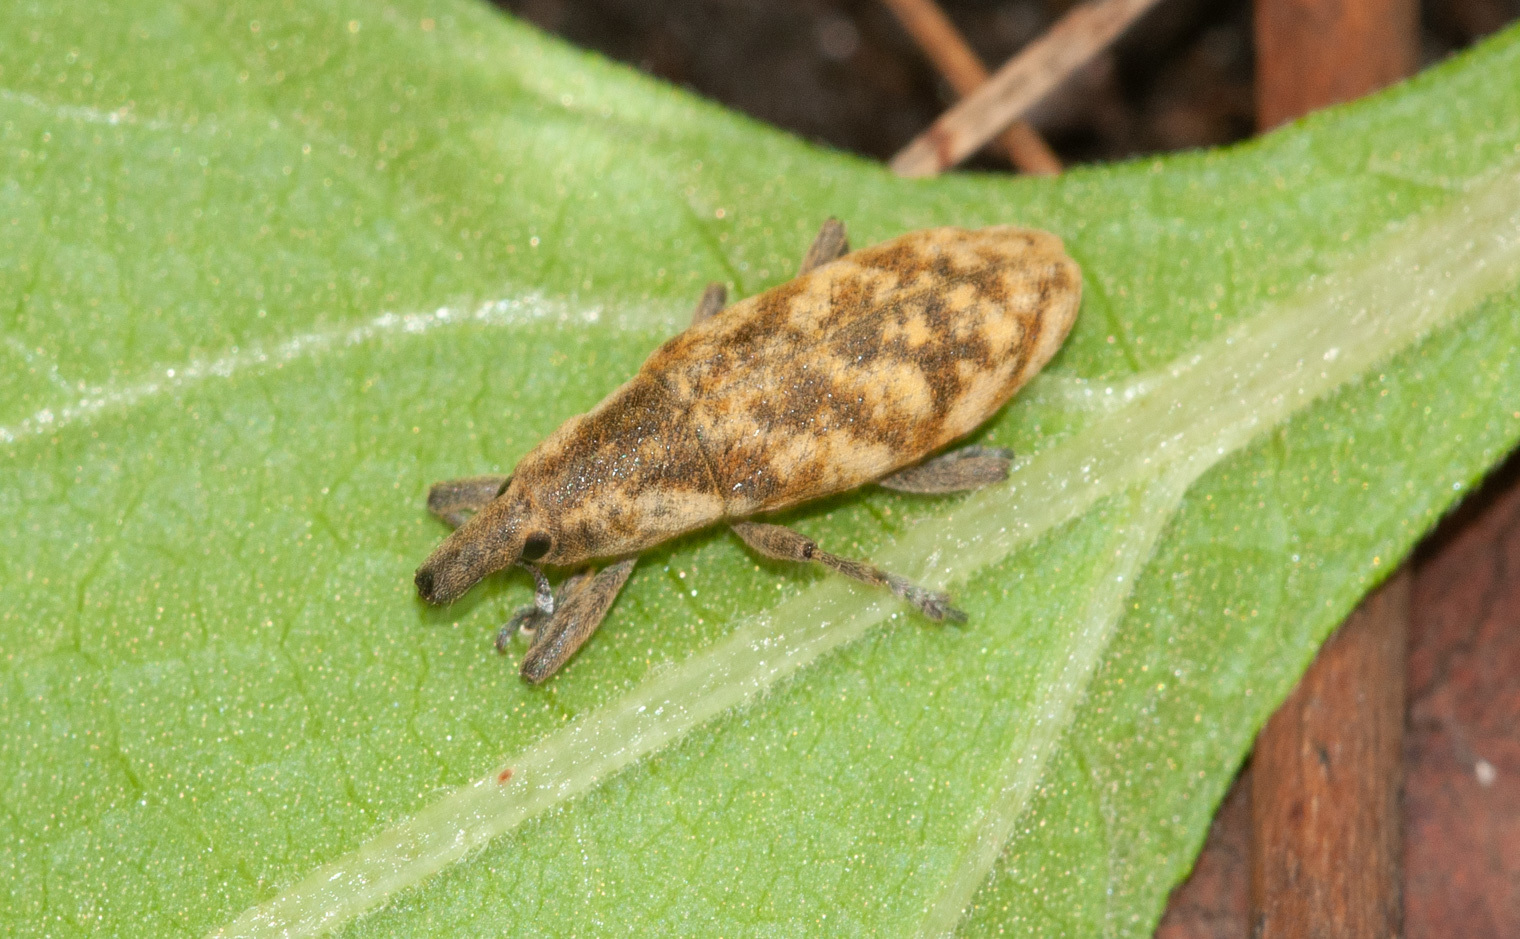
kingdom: Animalia
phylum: Arthropoda
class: Insecta
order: Coleoptera
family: Curculionidae
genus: Gasteroclisus
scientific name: Gasteroclisus
